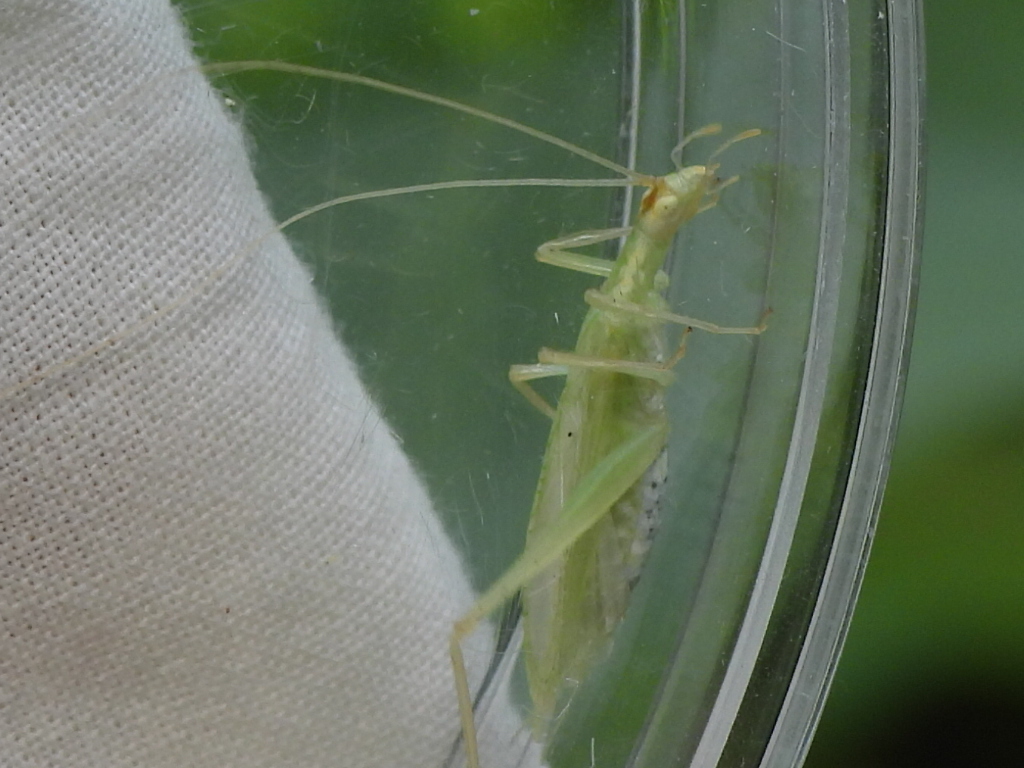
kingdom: Animalia
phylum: Arthropoda
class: Insecta
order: Orthoptera
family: Gryllidae
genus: Oecanthus
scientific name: Oecanthus niveus
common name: Narrow-winged tree cricket
